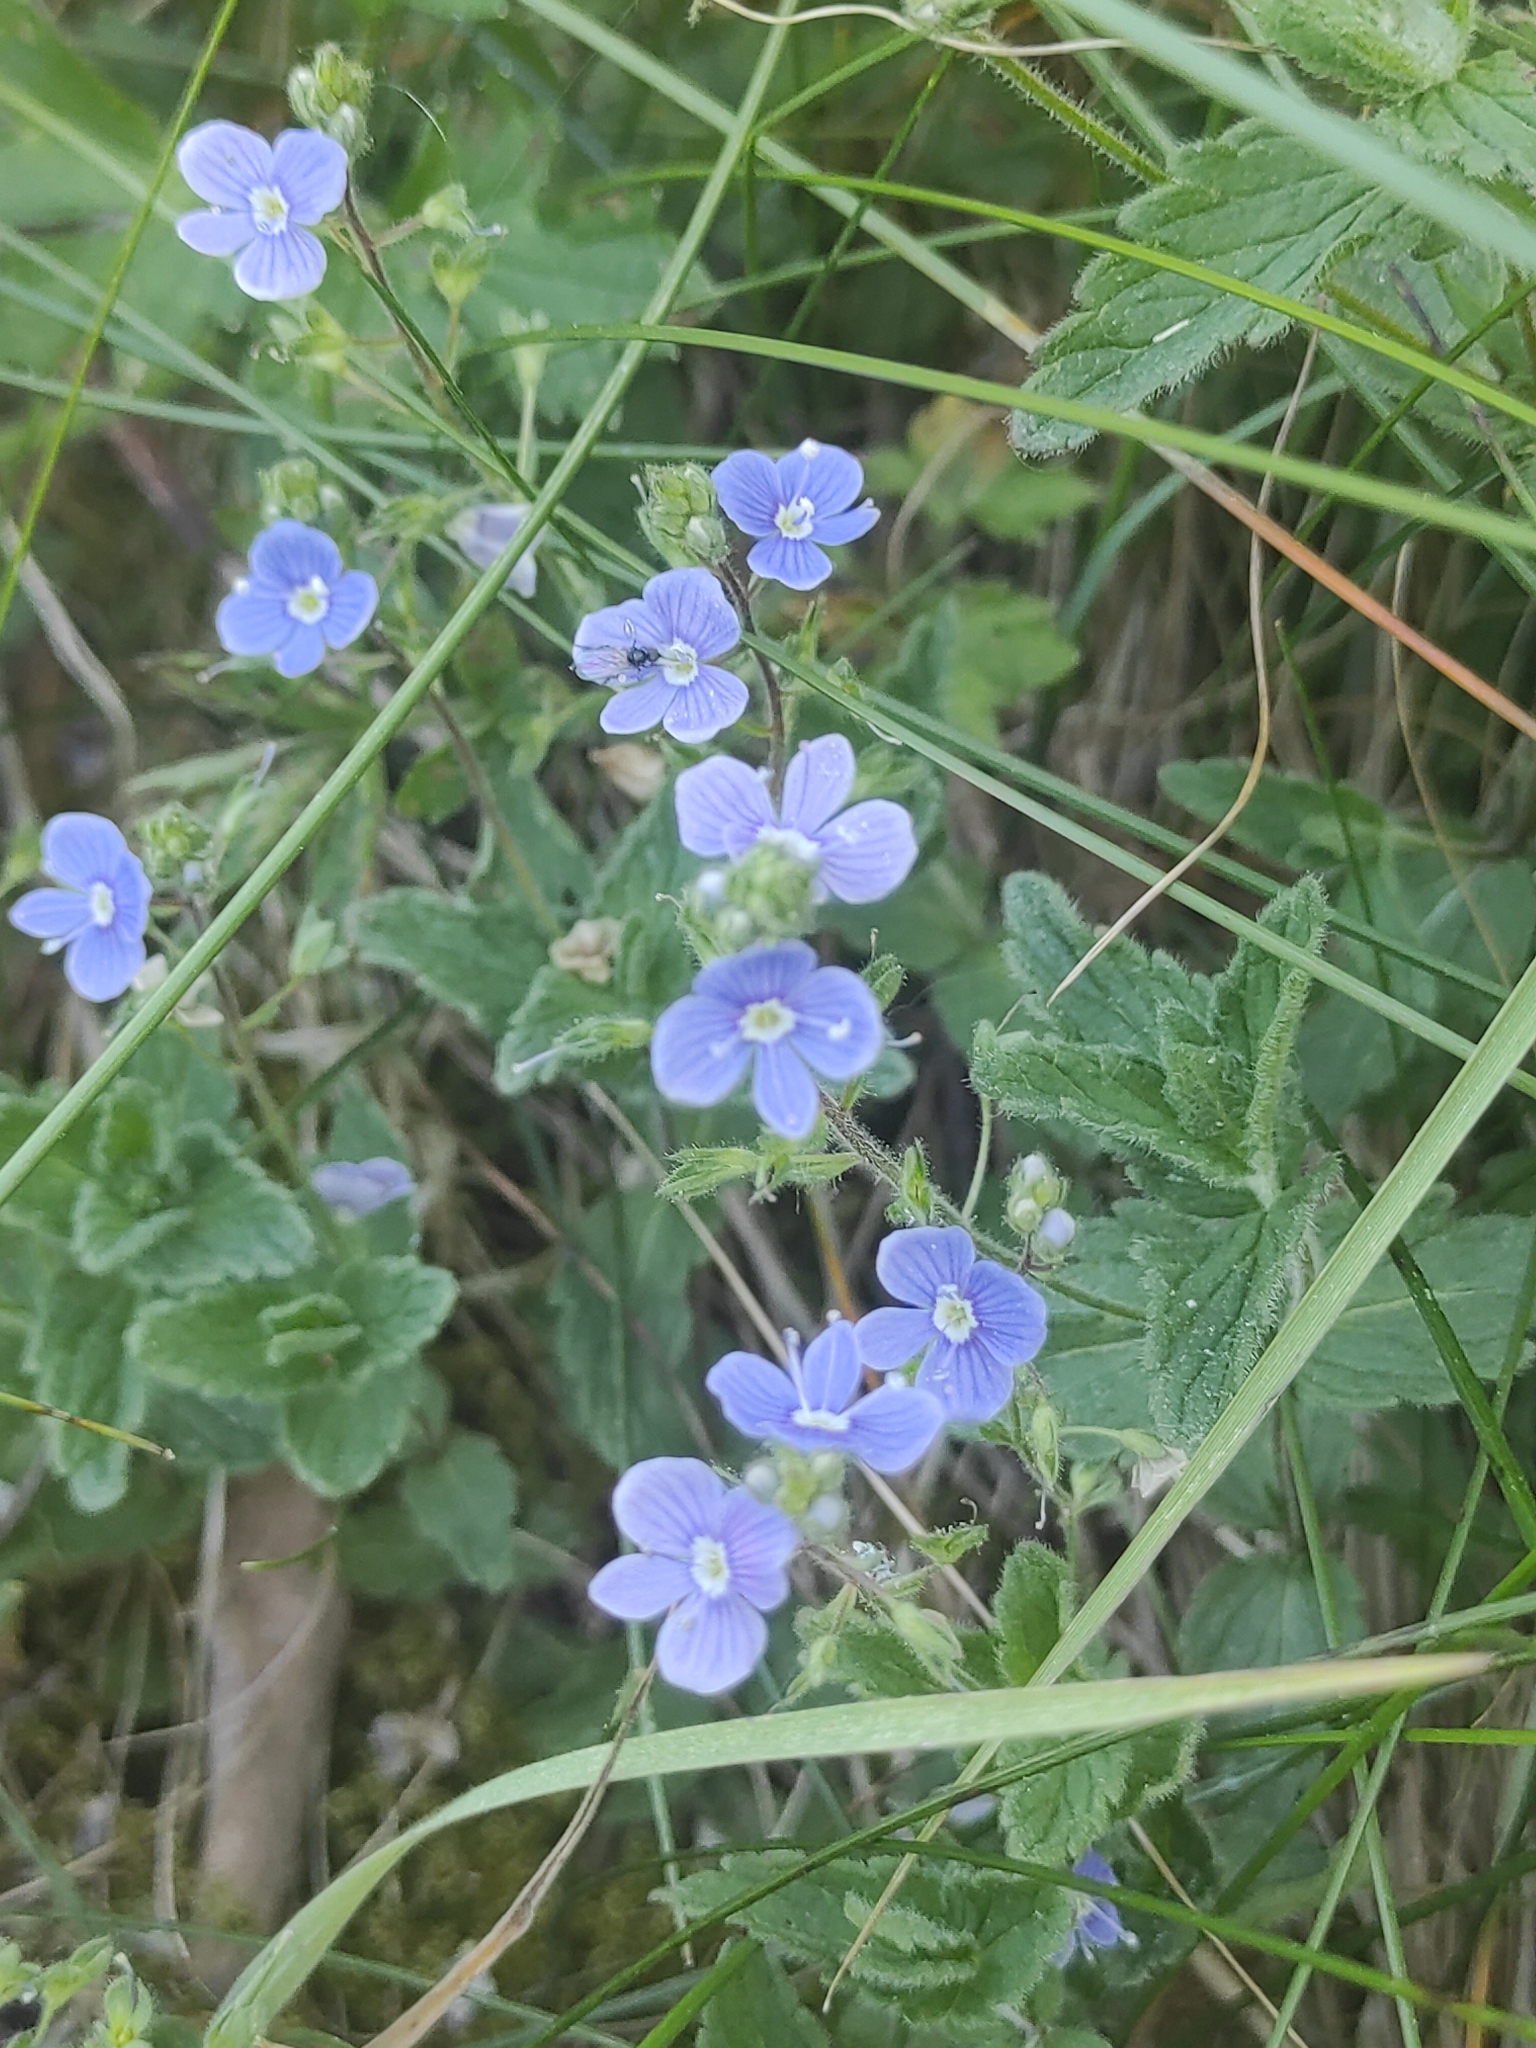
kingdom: Plantae
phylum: Tracheophyta
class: Magnoliopsida
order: Lamiales
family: Plantaginaceae
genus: Veronica
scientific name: Veronica chamaedrys
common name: Germander speedwell
